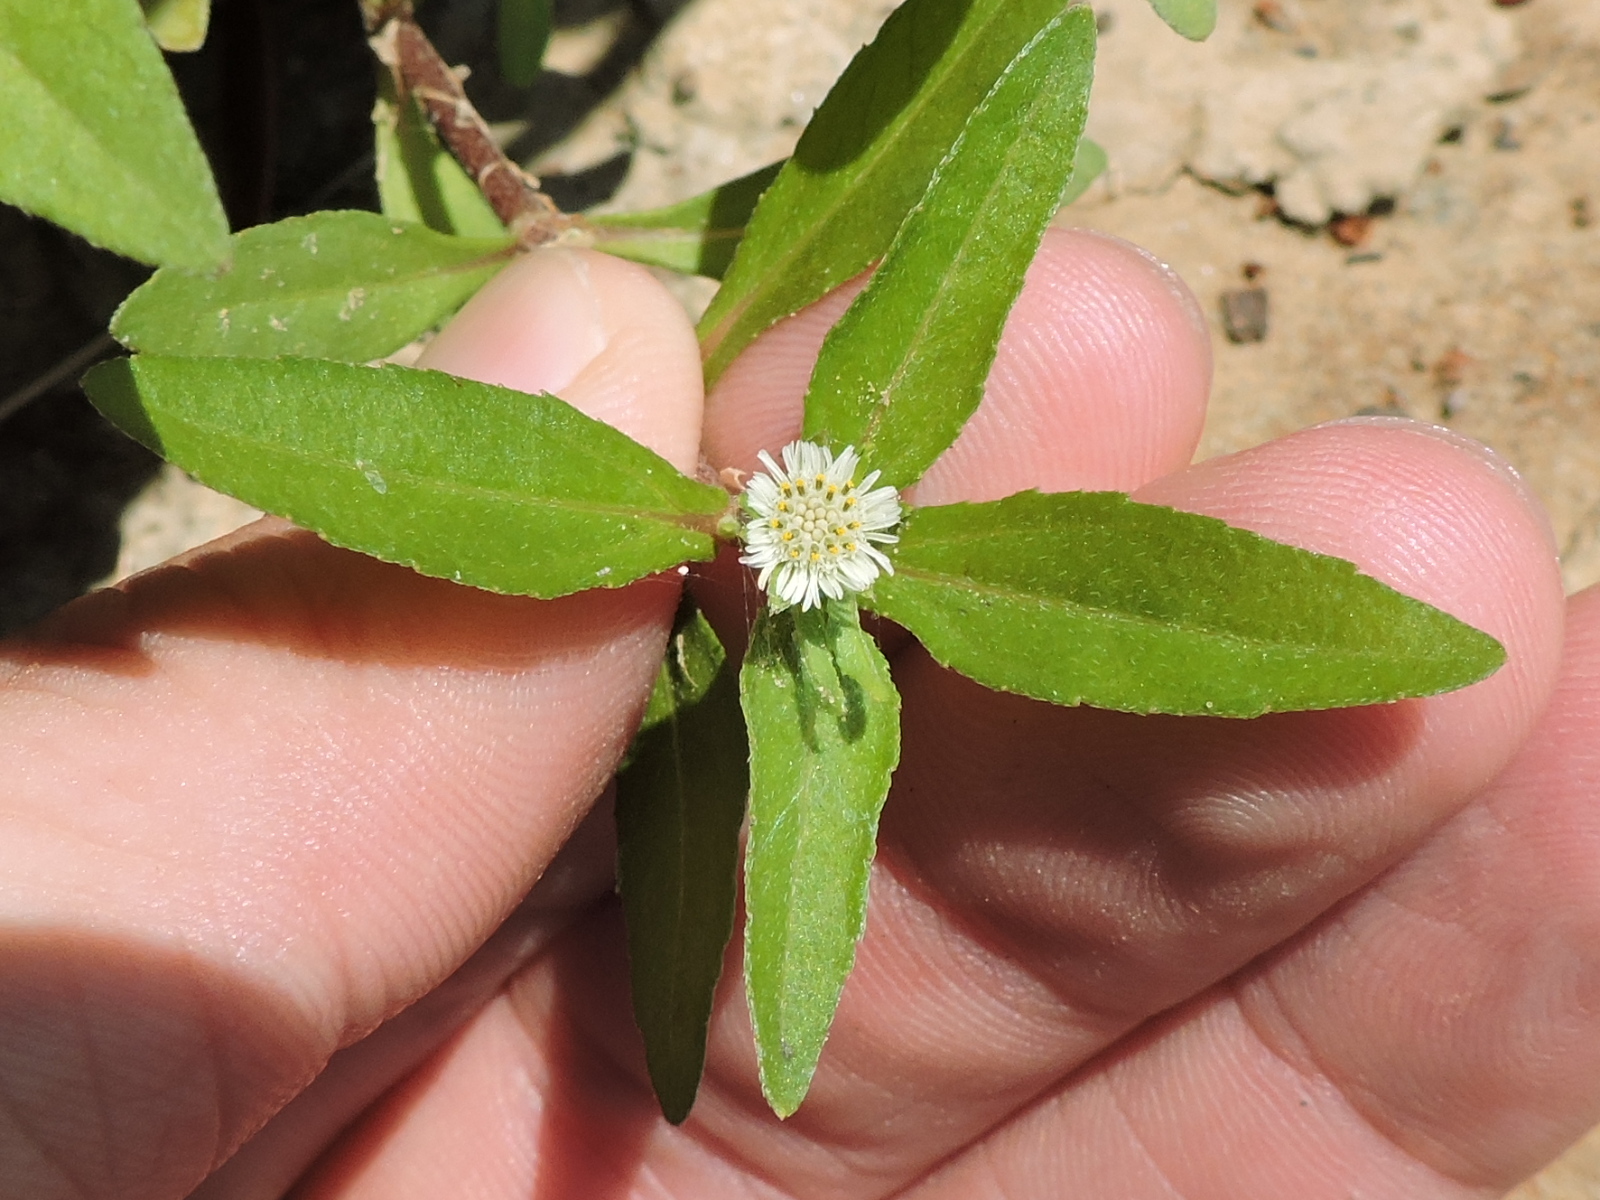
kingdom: Plantae
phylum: Tracheophyta
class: Magnoliopsida
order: Asterales
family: Asteraceae
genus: Eclipta
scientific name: Eclipta prostrata
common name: False daisy
